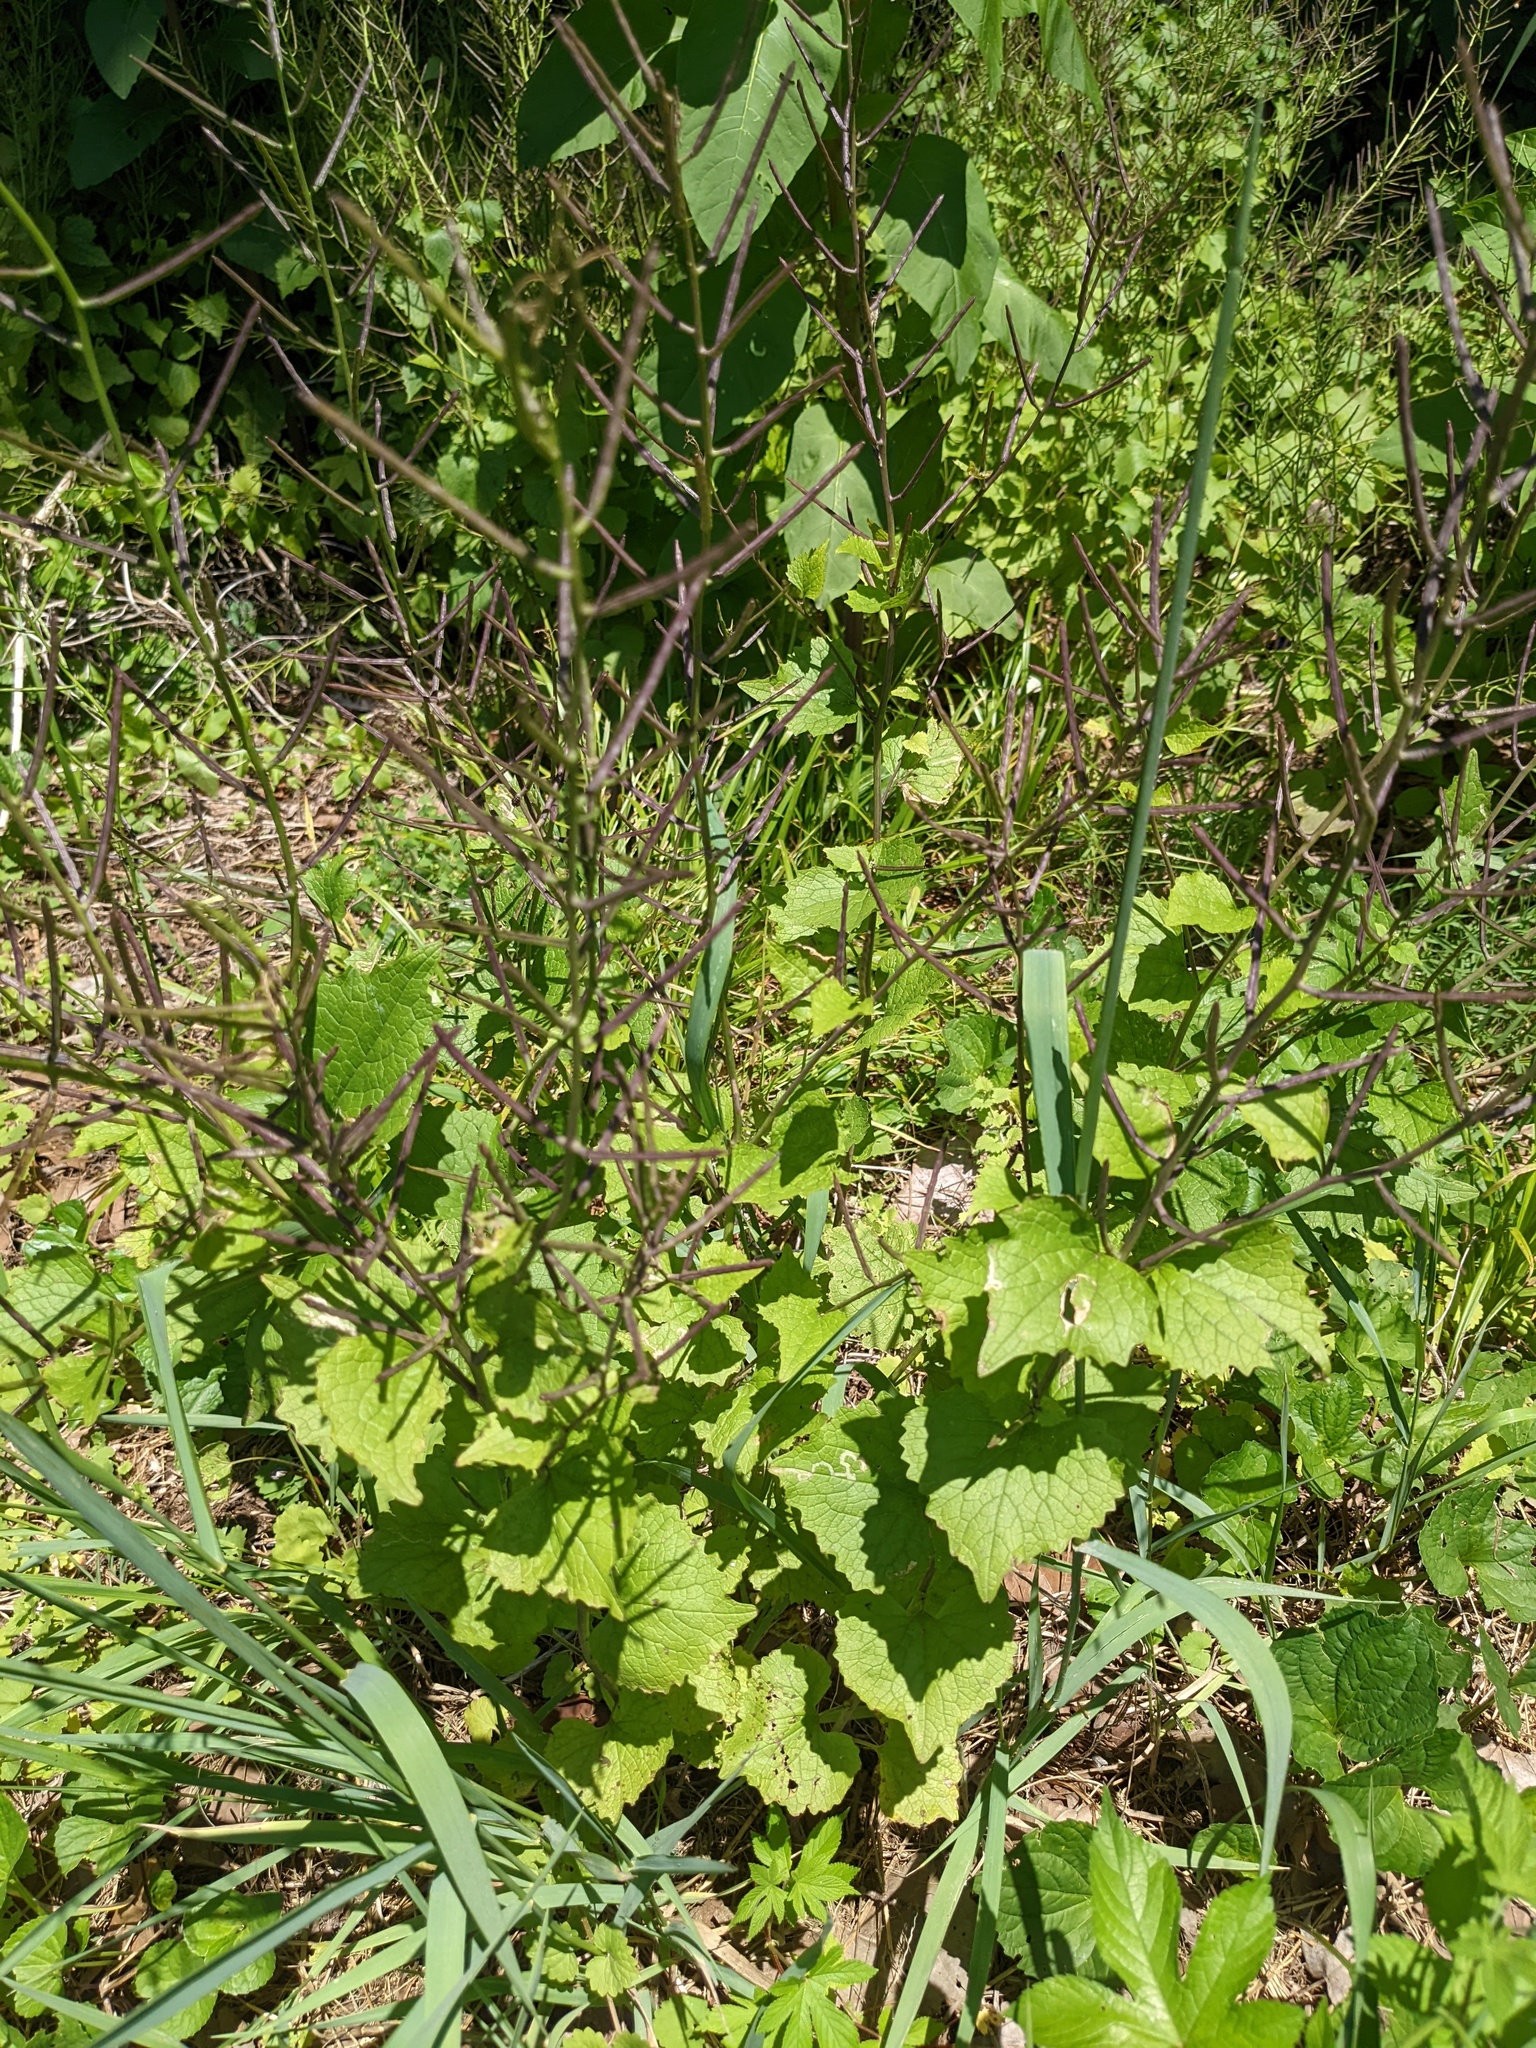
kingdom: Plantae
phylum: Tracheophyta
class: Magnoliopsida
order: Brassicales
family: Brassicaceae
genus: Alliaria
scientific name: Alliaria petiolata
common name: Garlic mustard
